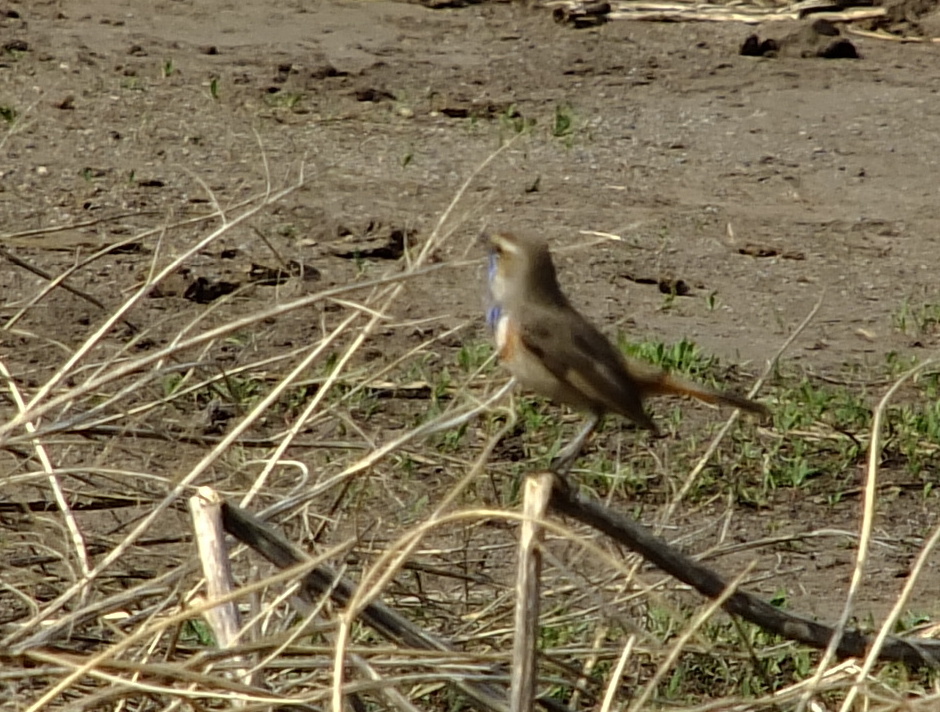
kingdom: Animalia
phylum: Chordata
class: Aves
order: Passeriformes
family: Muscicapidae
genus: Luscinia
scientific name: Luscinia svecica
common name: Bluethroat
